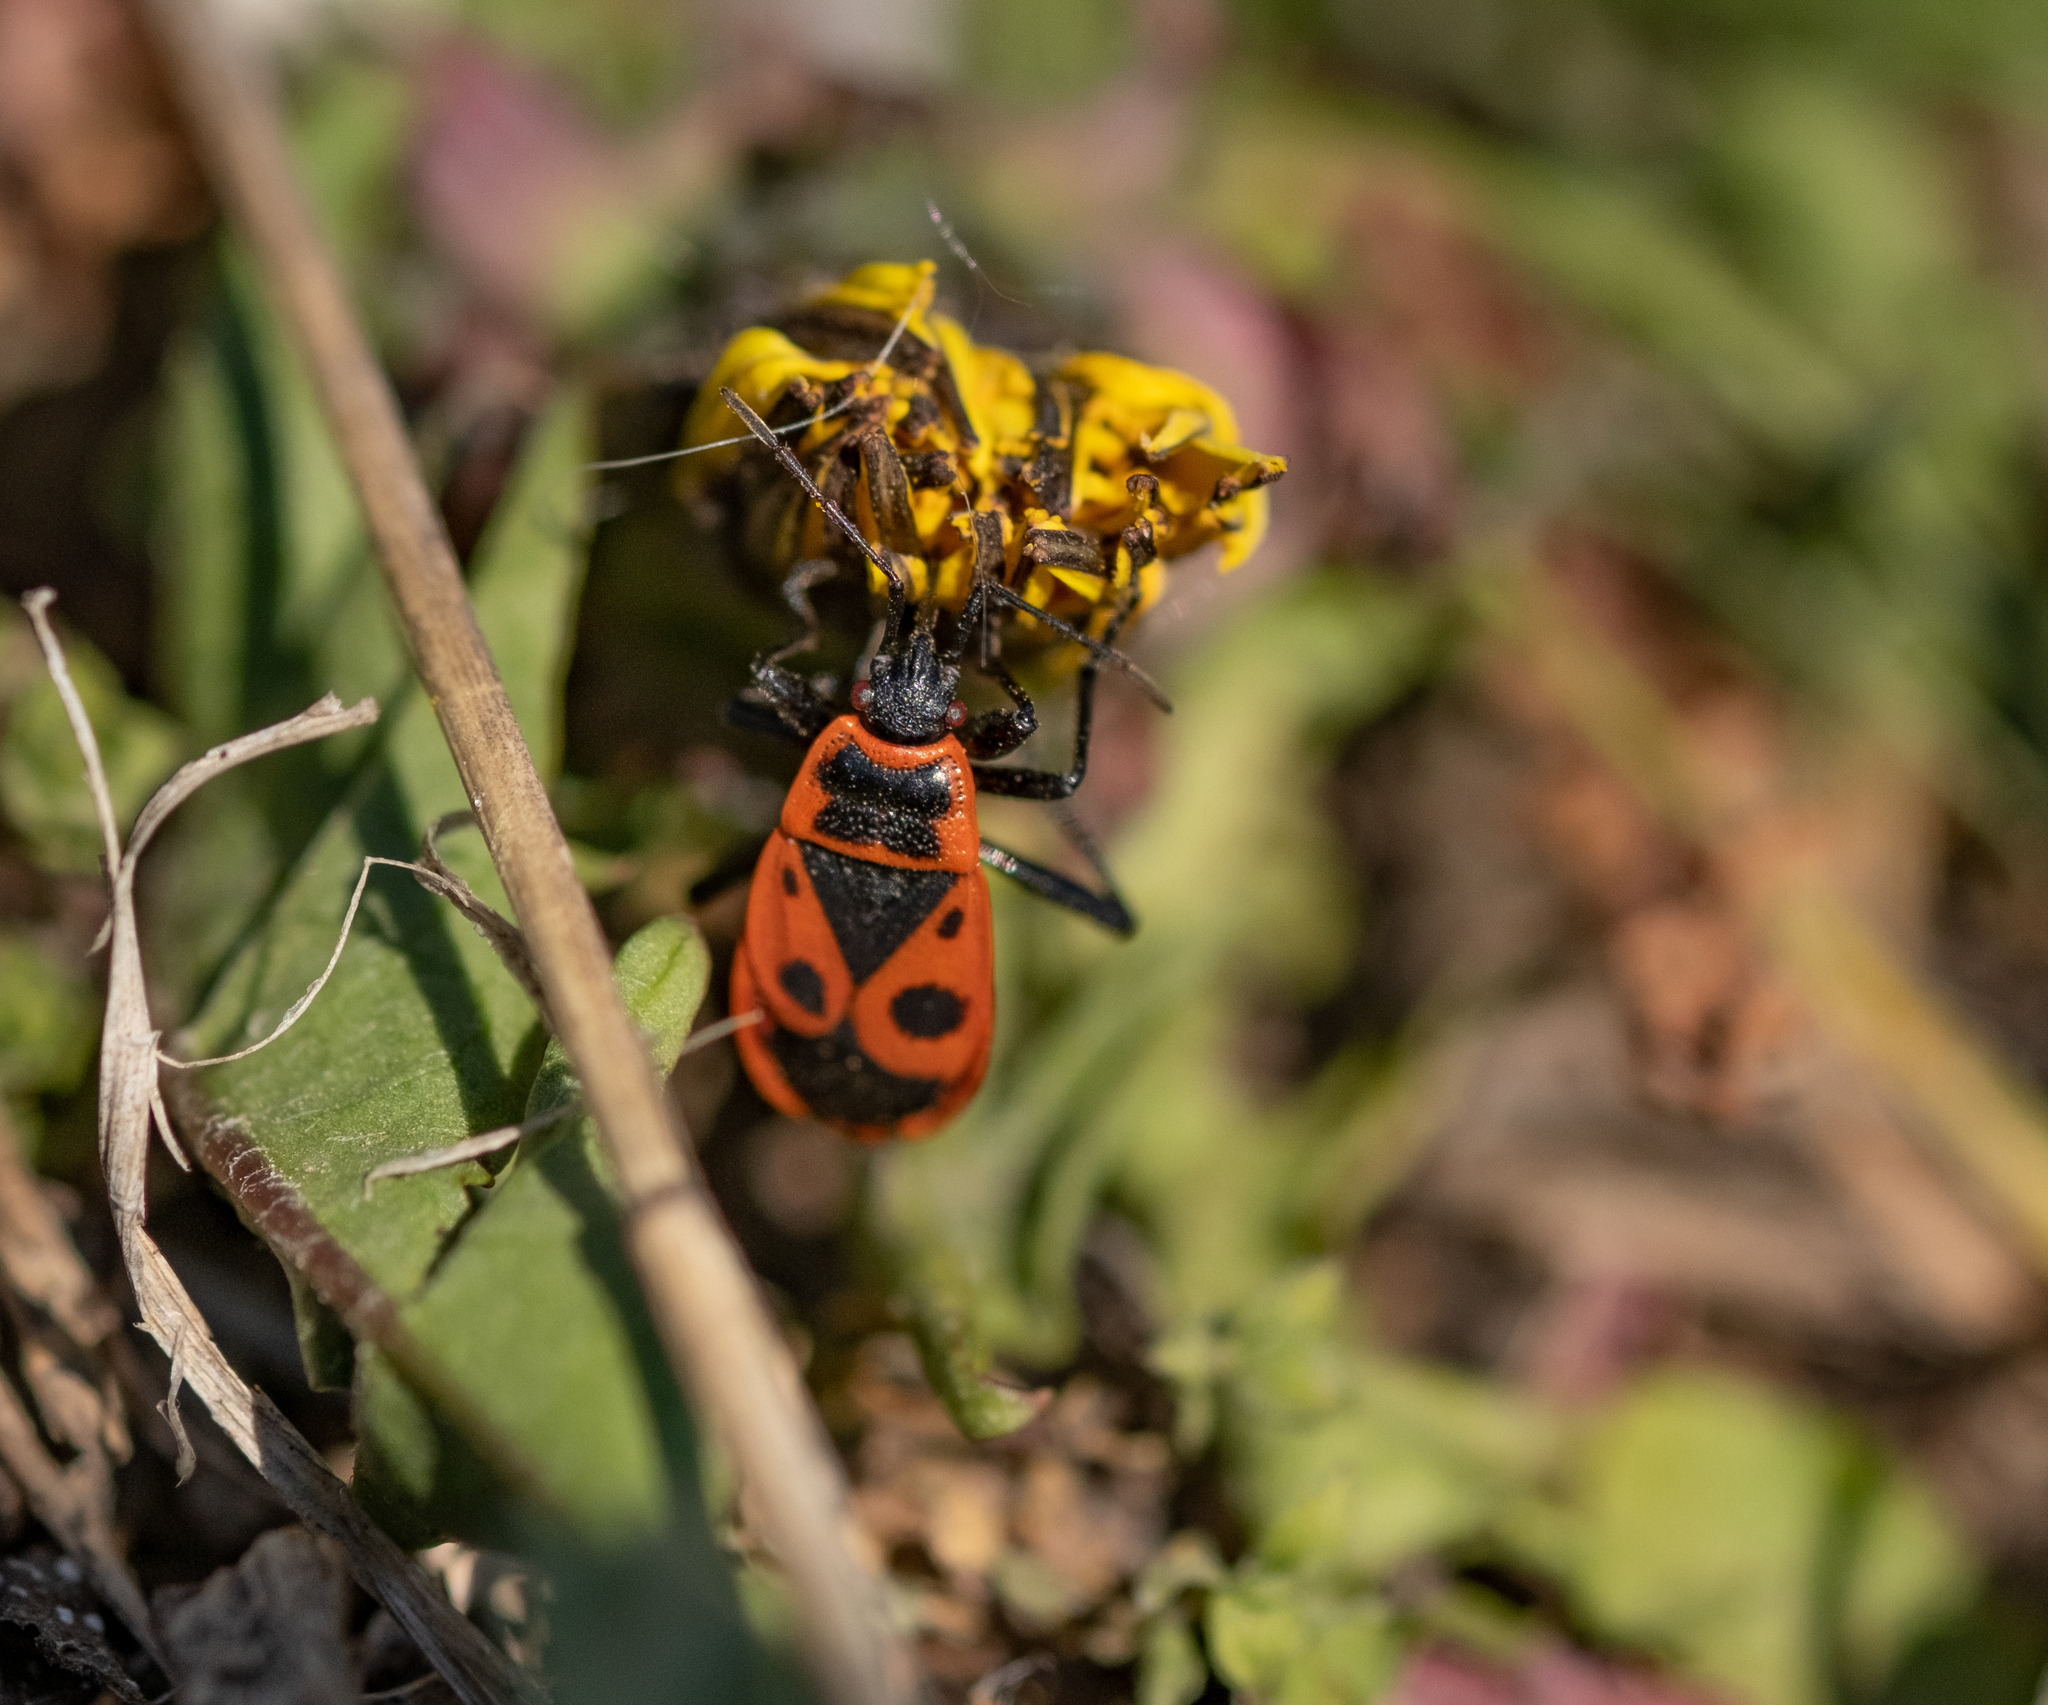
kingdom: Animalia
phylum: Arthropoda
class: Insecta
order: Hemiptera
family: Pyrrhocoridae
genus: Pyrrhocoris
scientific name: Pyrrhocoris apterus
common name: Firebug
